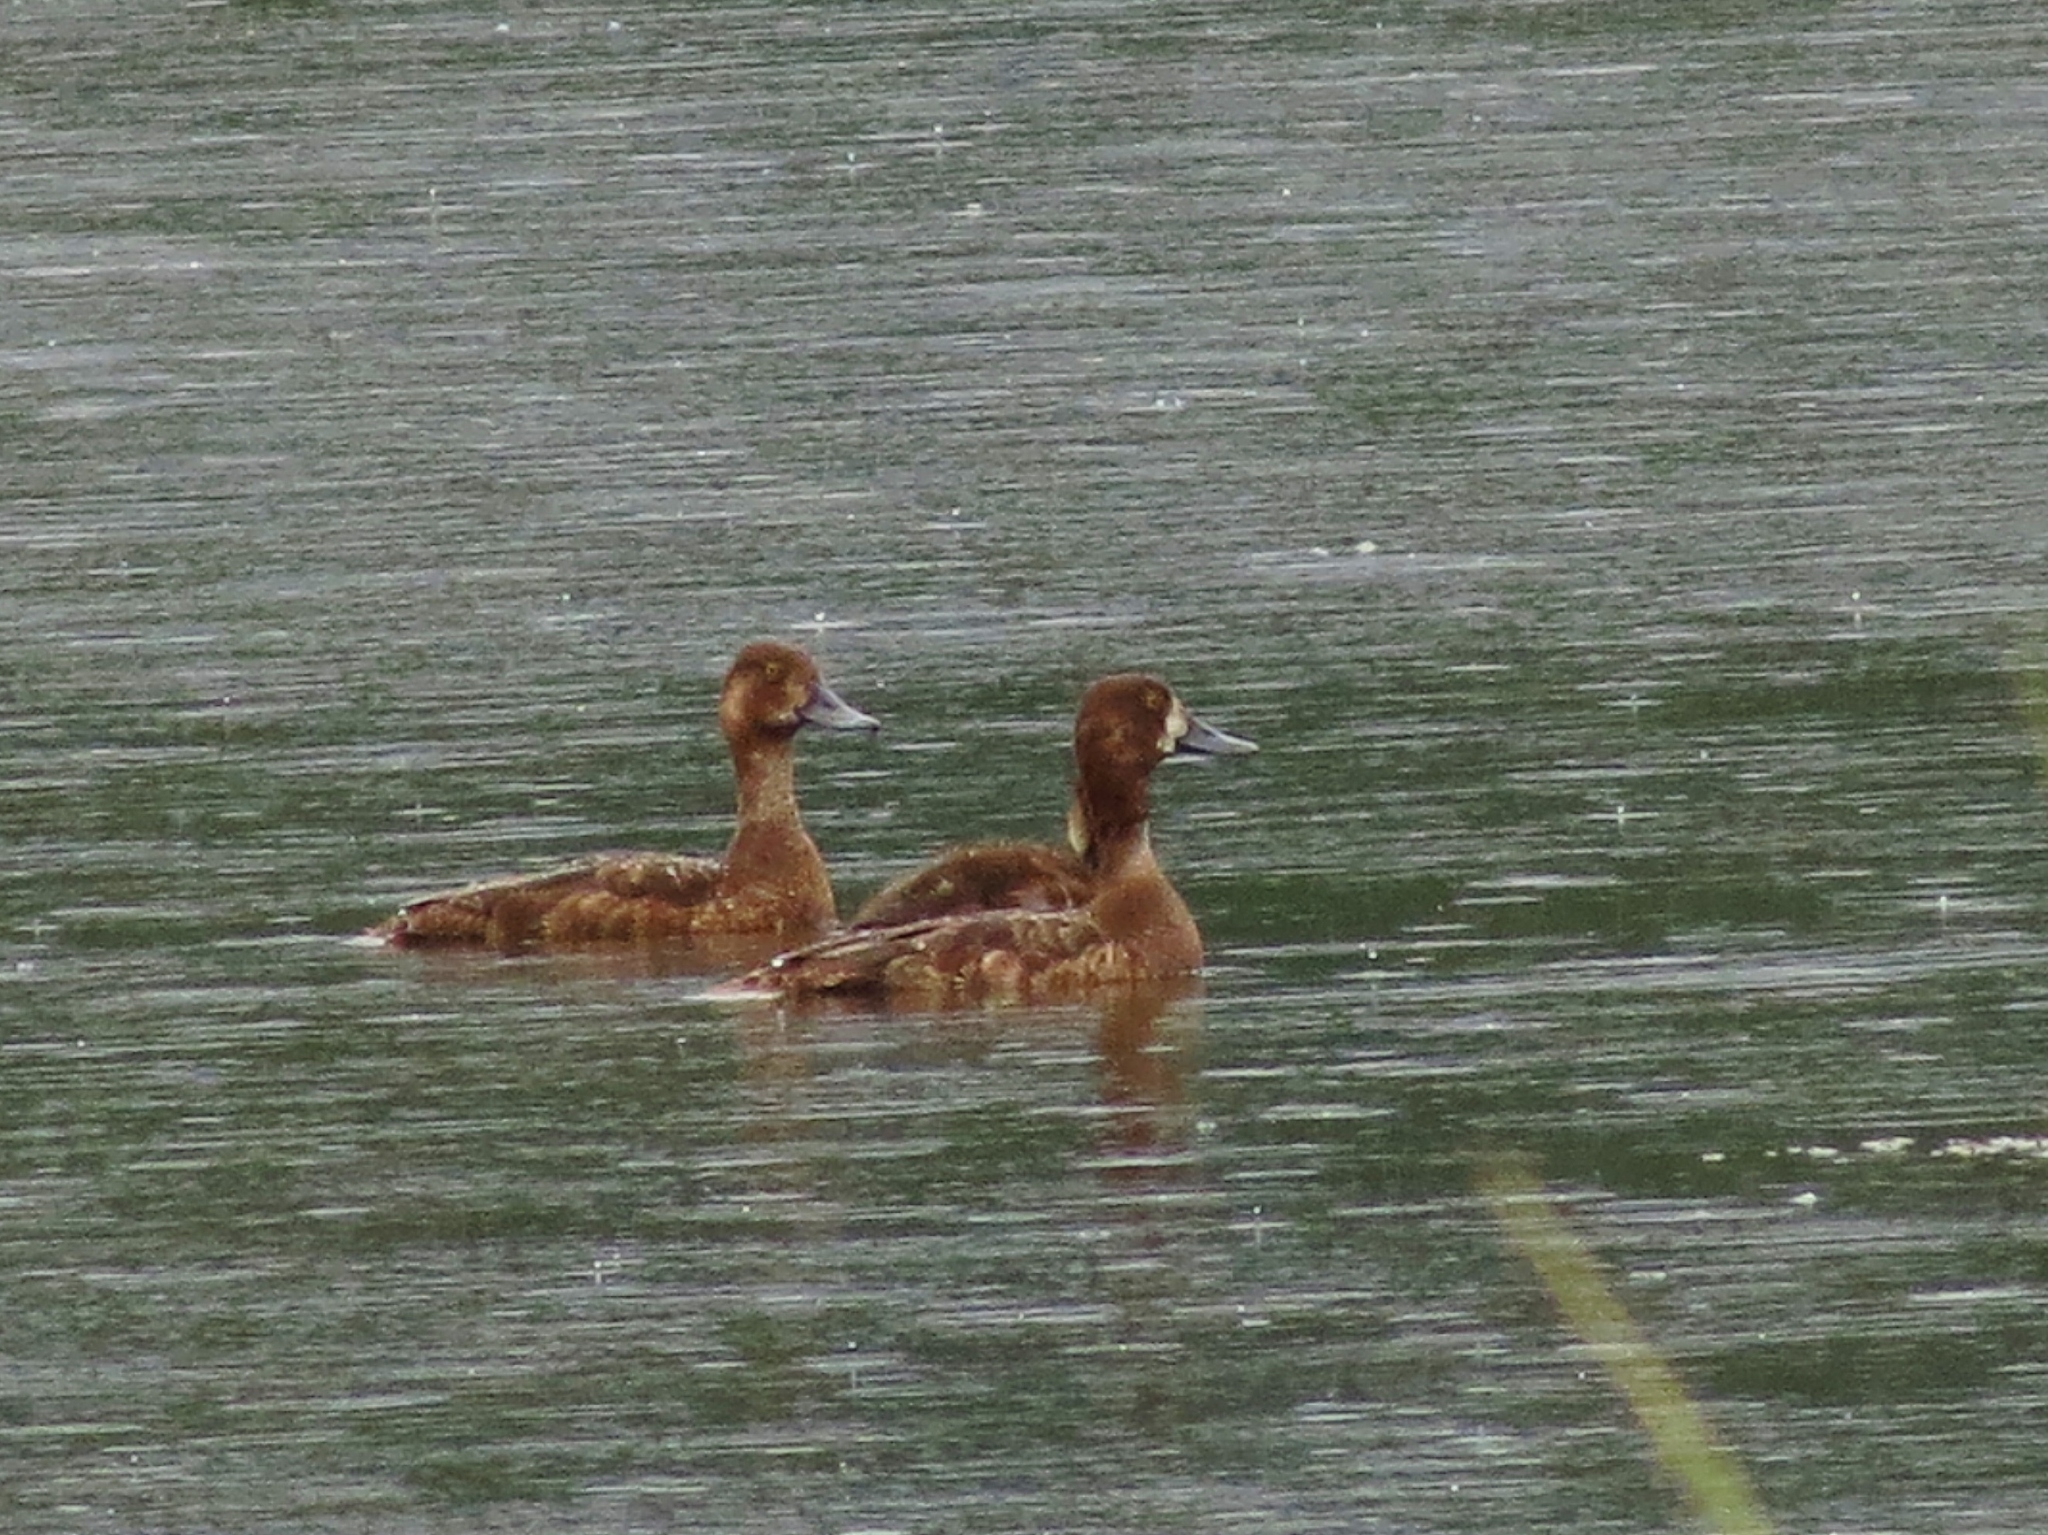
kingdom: Animalia
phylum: Chordata
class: Aves
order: Anseriformes
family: Anatidae
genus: Aythya
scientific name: Aythya marila
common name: Greater scaup
